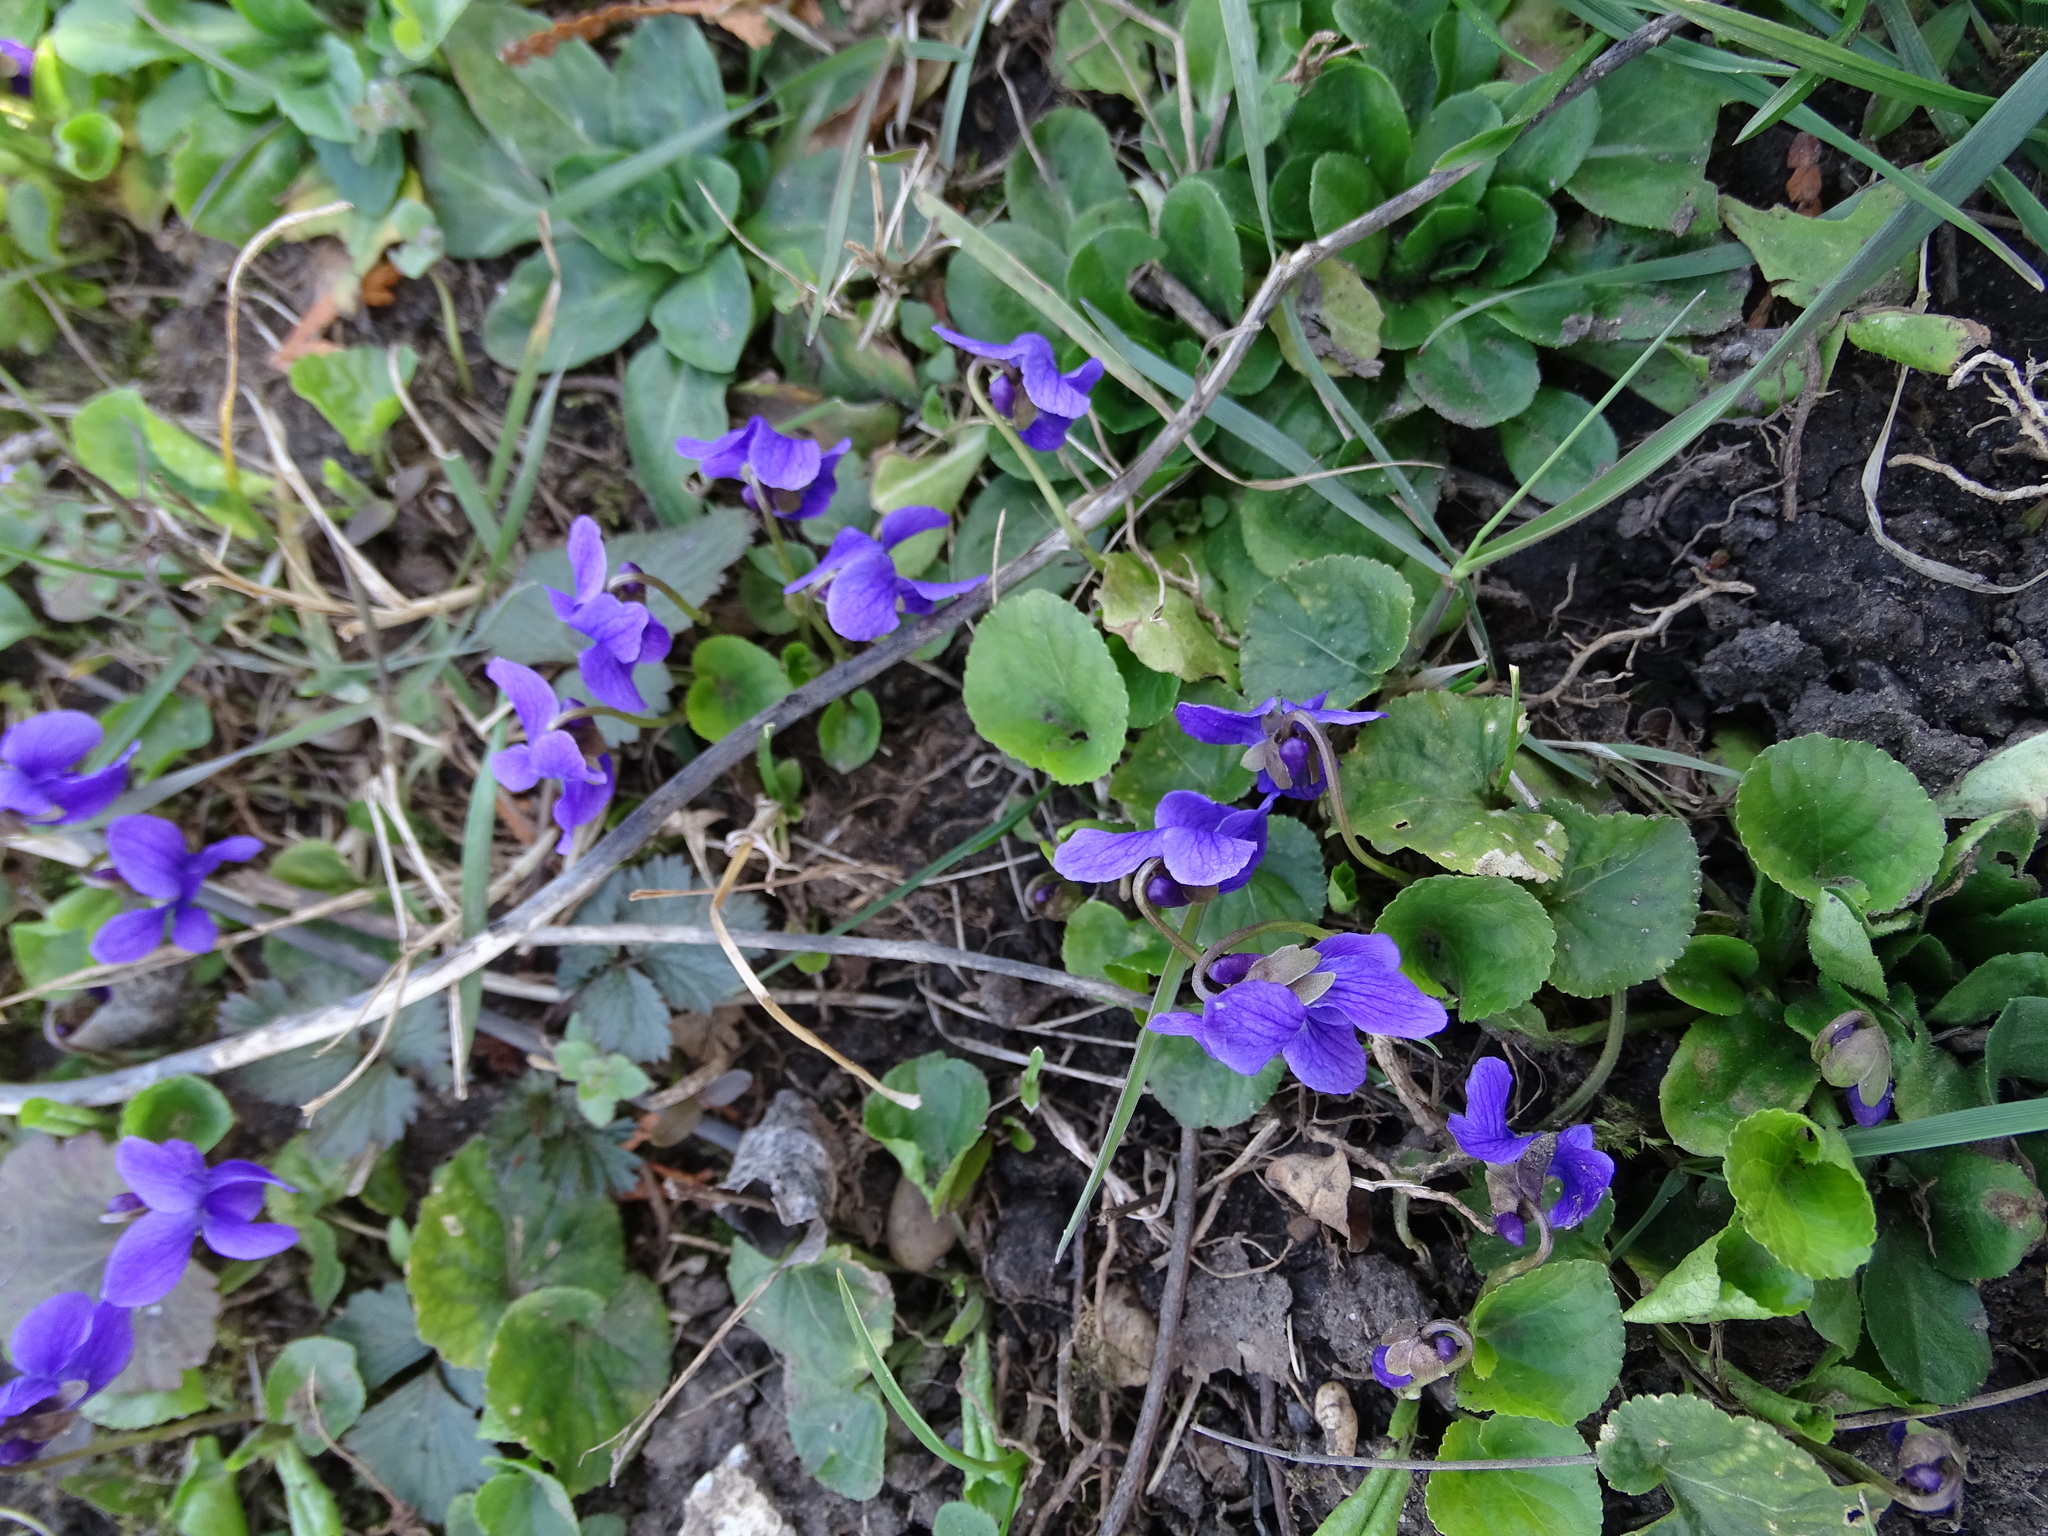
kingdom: Plantae
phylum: Tracheophyta
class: Magnoliopsida
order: Malpighiales
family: Violaceae
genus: Viola
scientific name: Viola odorata
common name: Sweet violet
